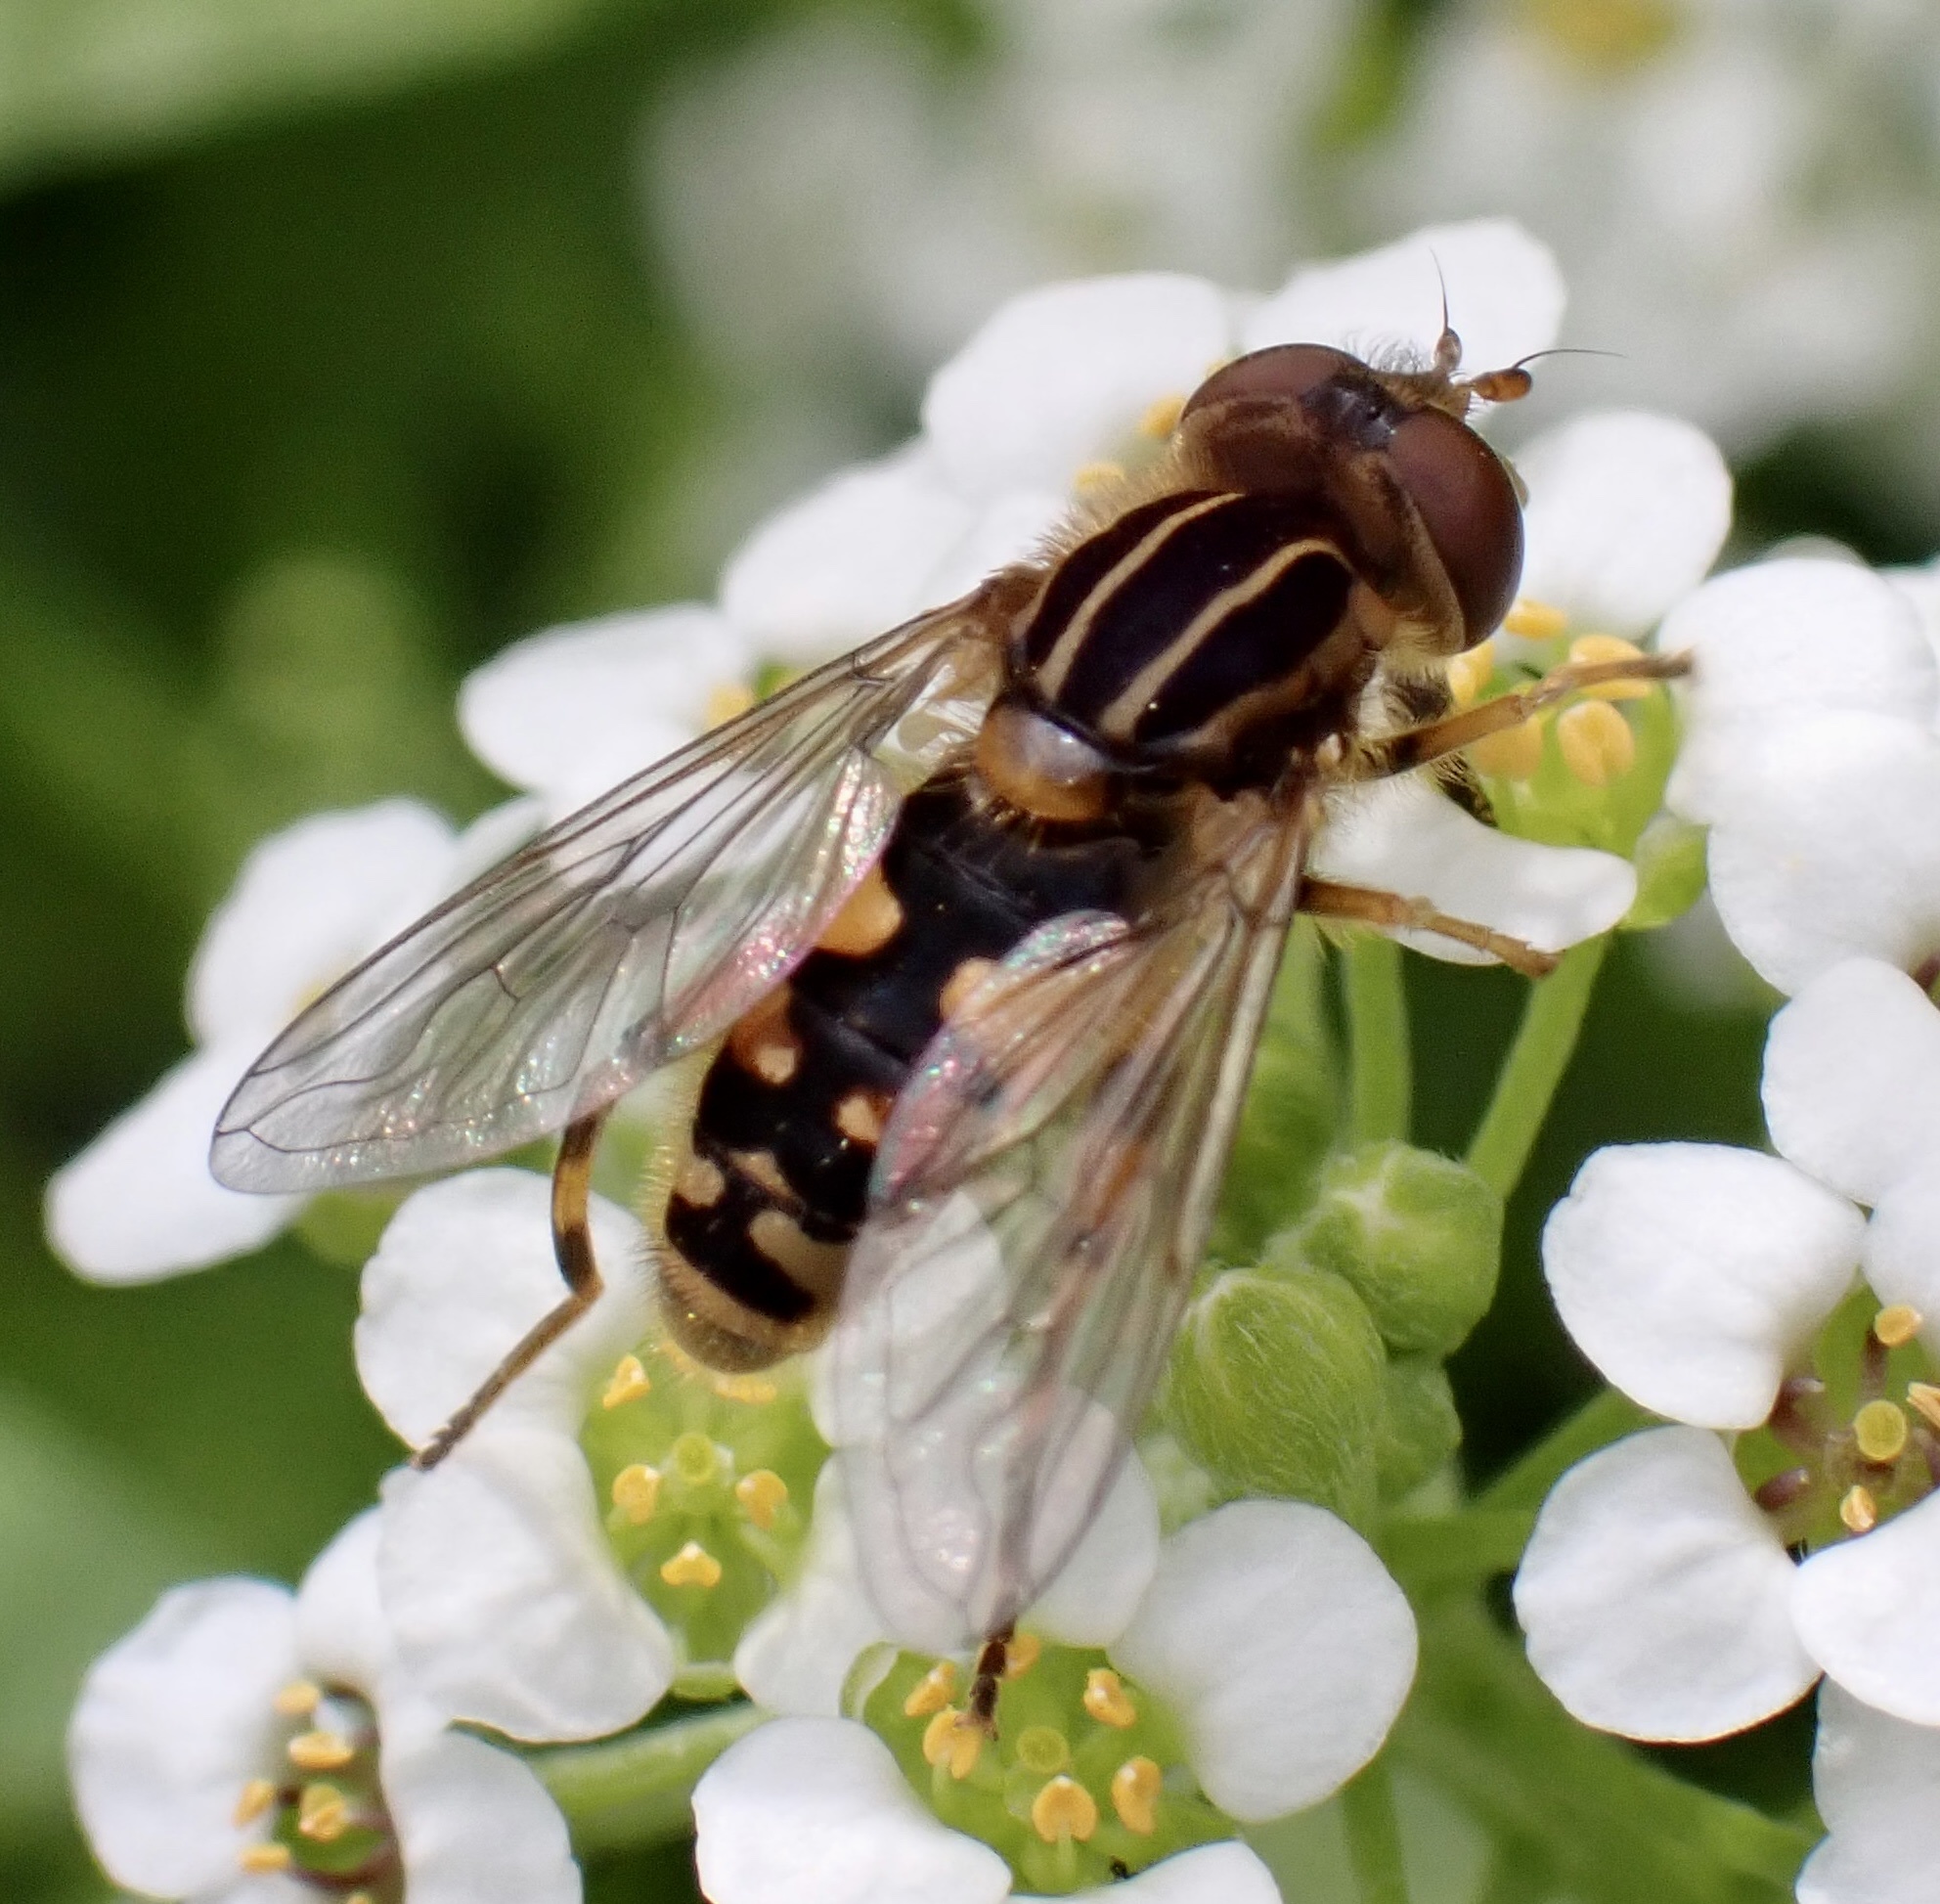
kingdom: Animalia
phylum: Arthropoda
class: Insecta
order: Diptera
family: Syrphidae
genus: Eurimyia
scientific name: Eurimyia lineatus
